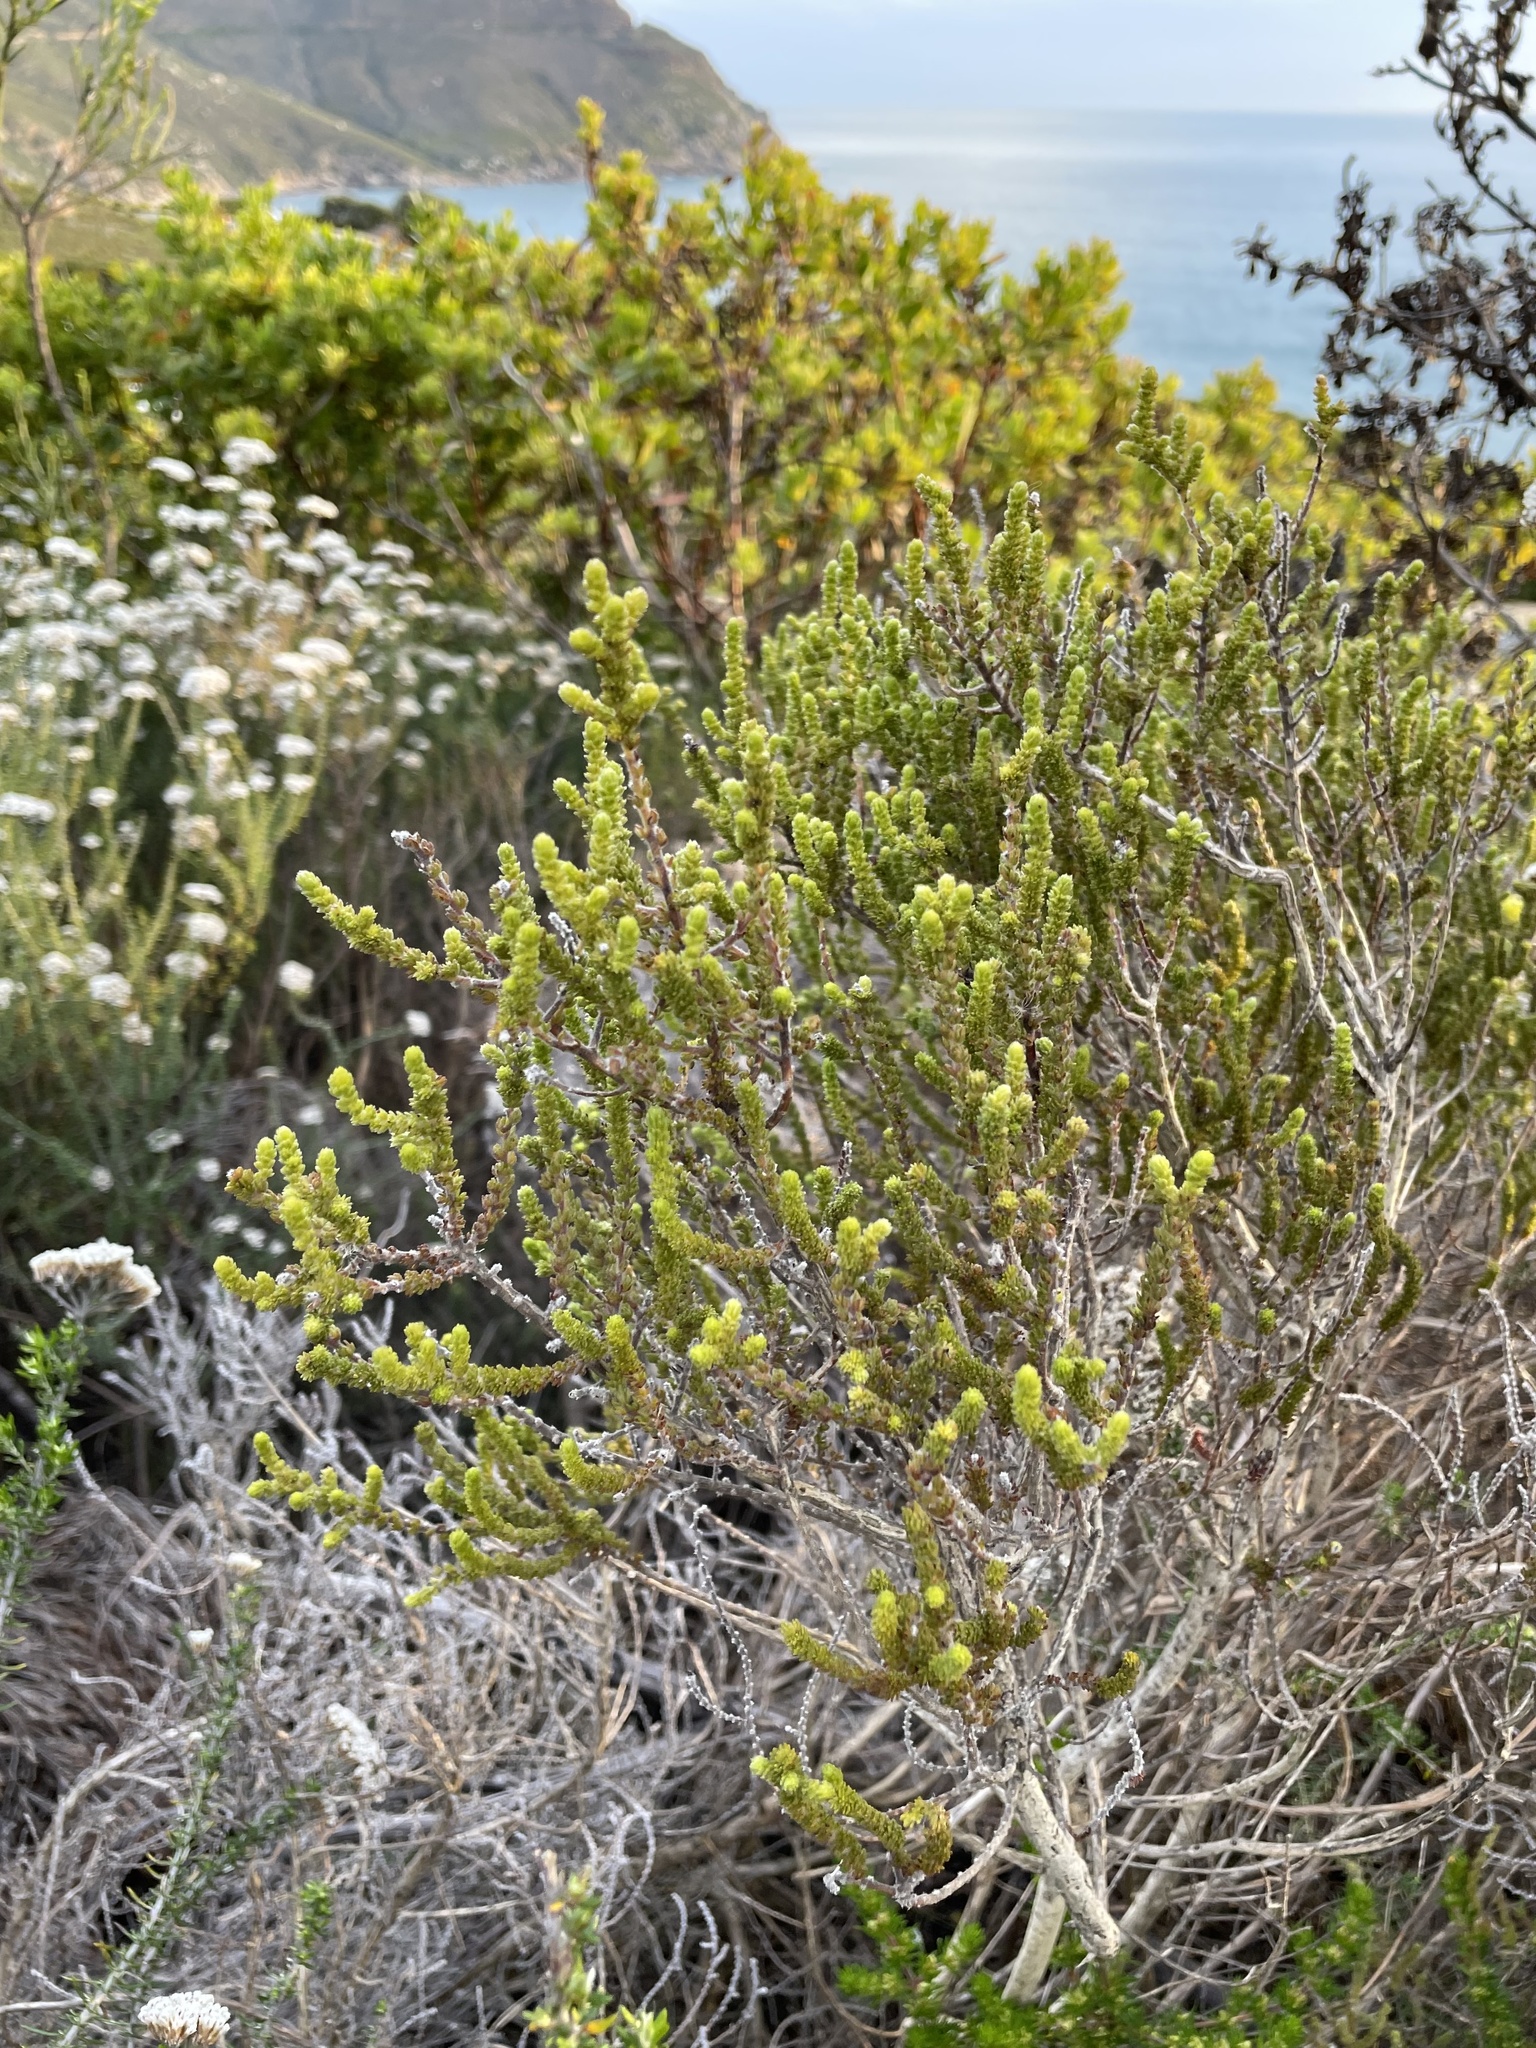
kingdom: Plantae
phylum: Tracheophyta
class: Magnoliopsida
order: Fabales
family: Fabaceae
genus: Aspalathus
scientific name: Aspalathus ericifolia
